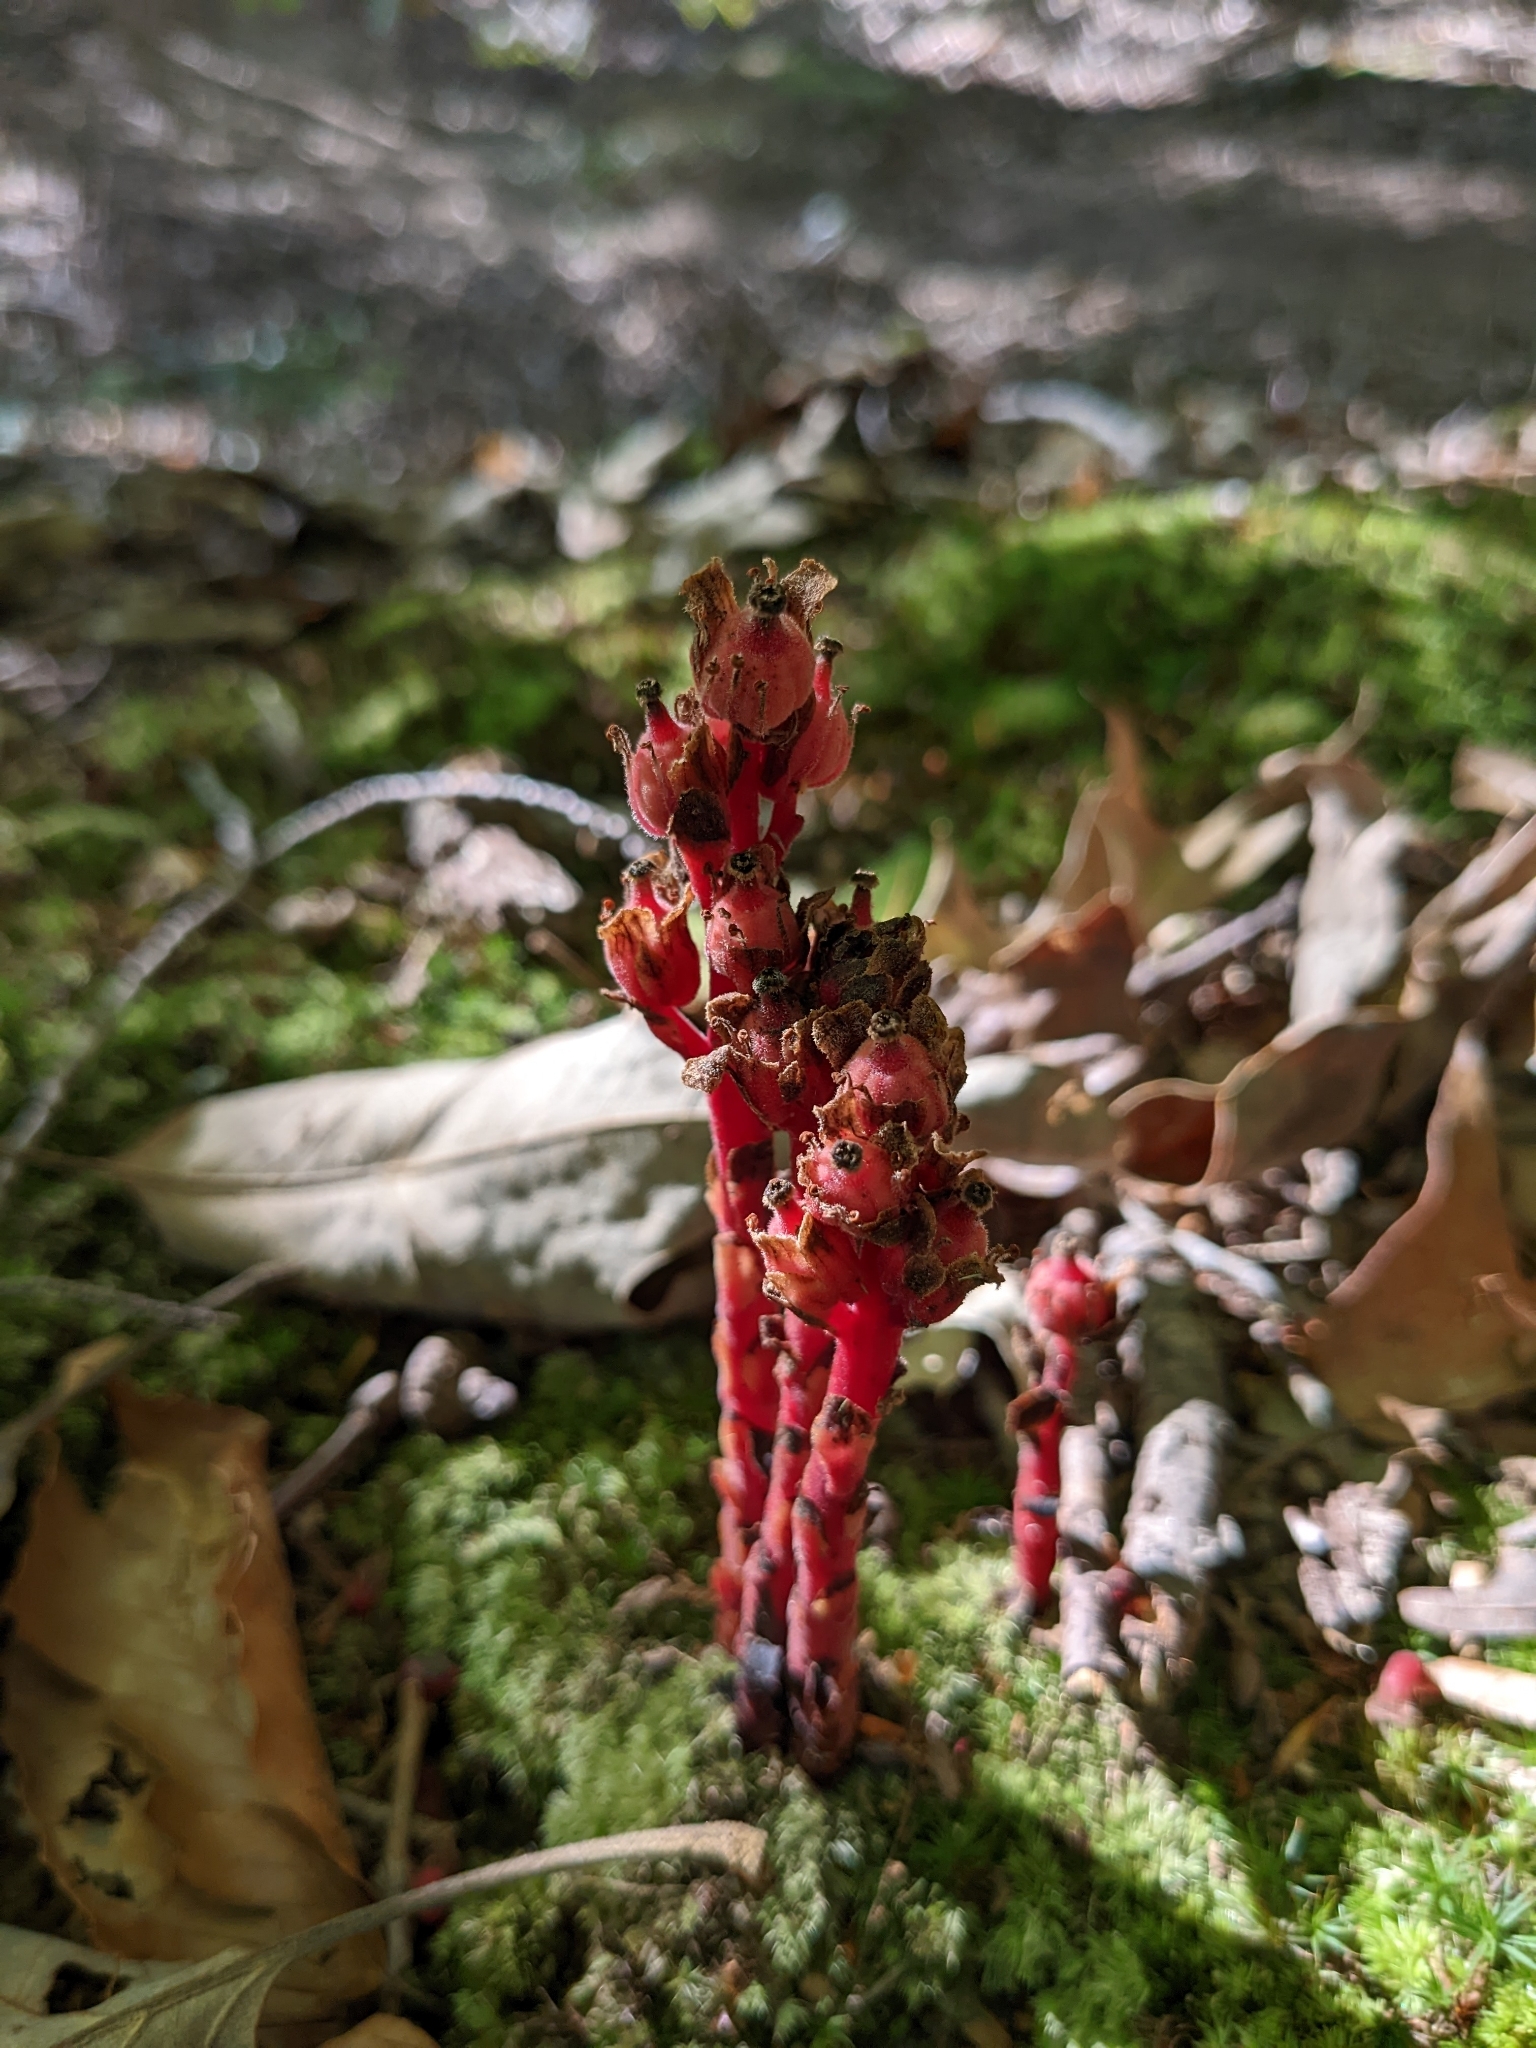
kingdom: Plantae
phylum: Tracheophyta
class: Magnoliopsida
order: Ericales
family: Ericaceae
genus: Hypopitys
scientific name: Hypopitys monotropa
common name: Yellow bird's-nest
